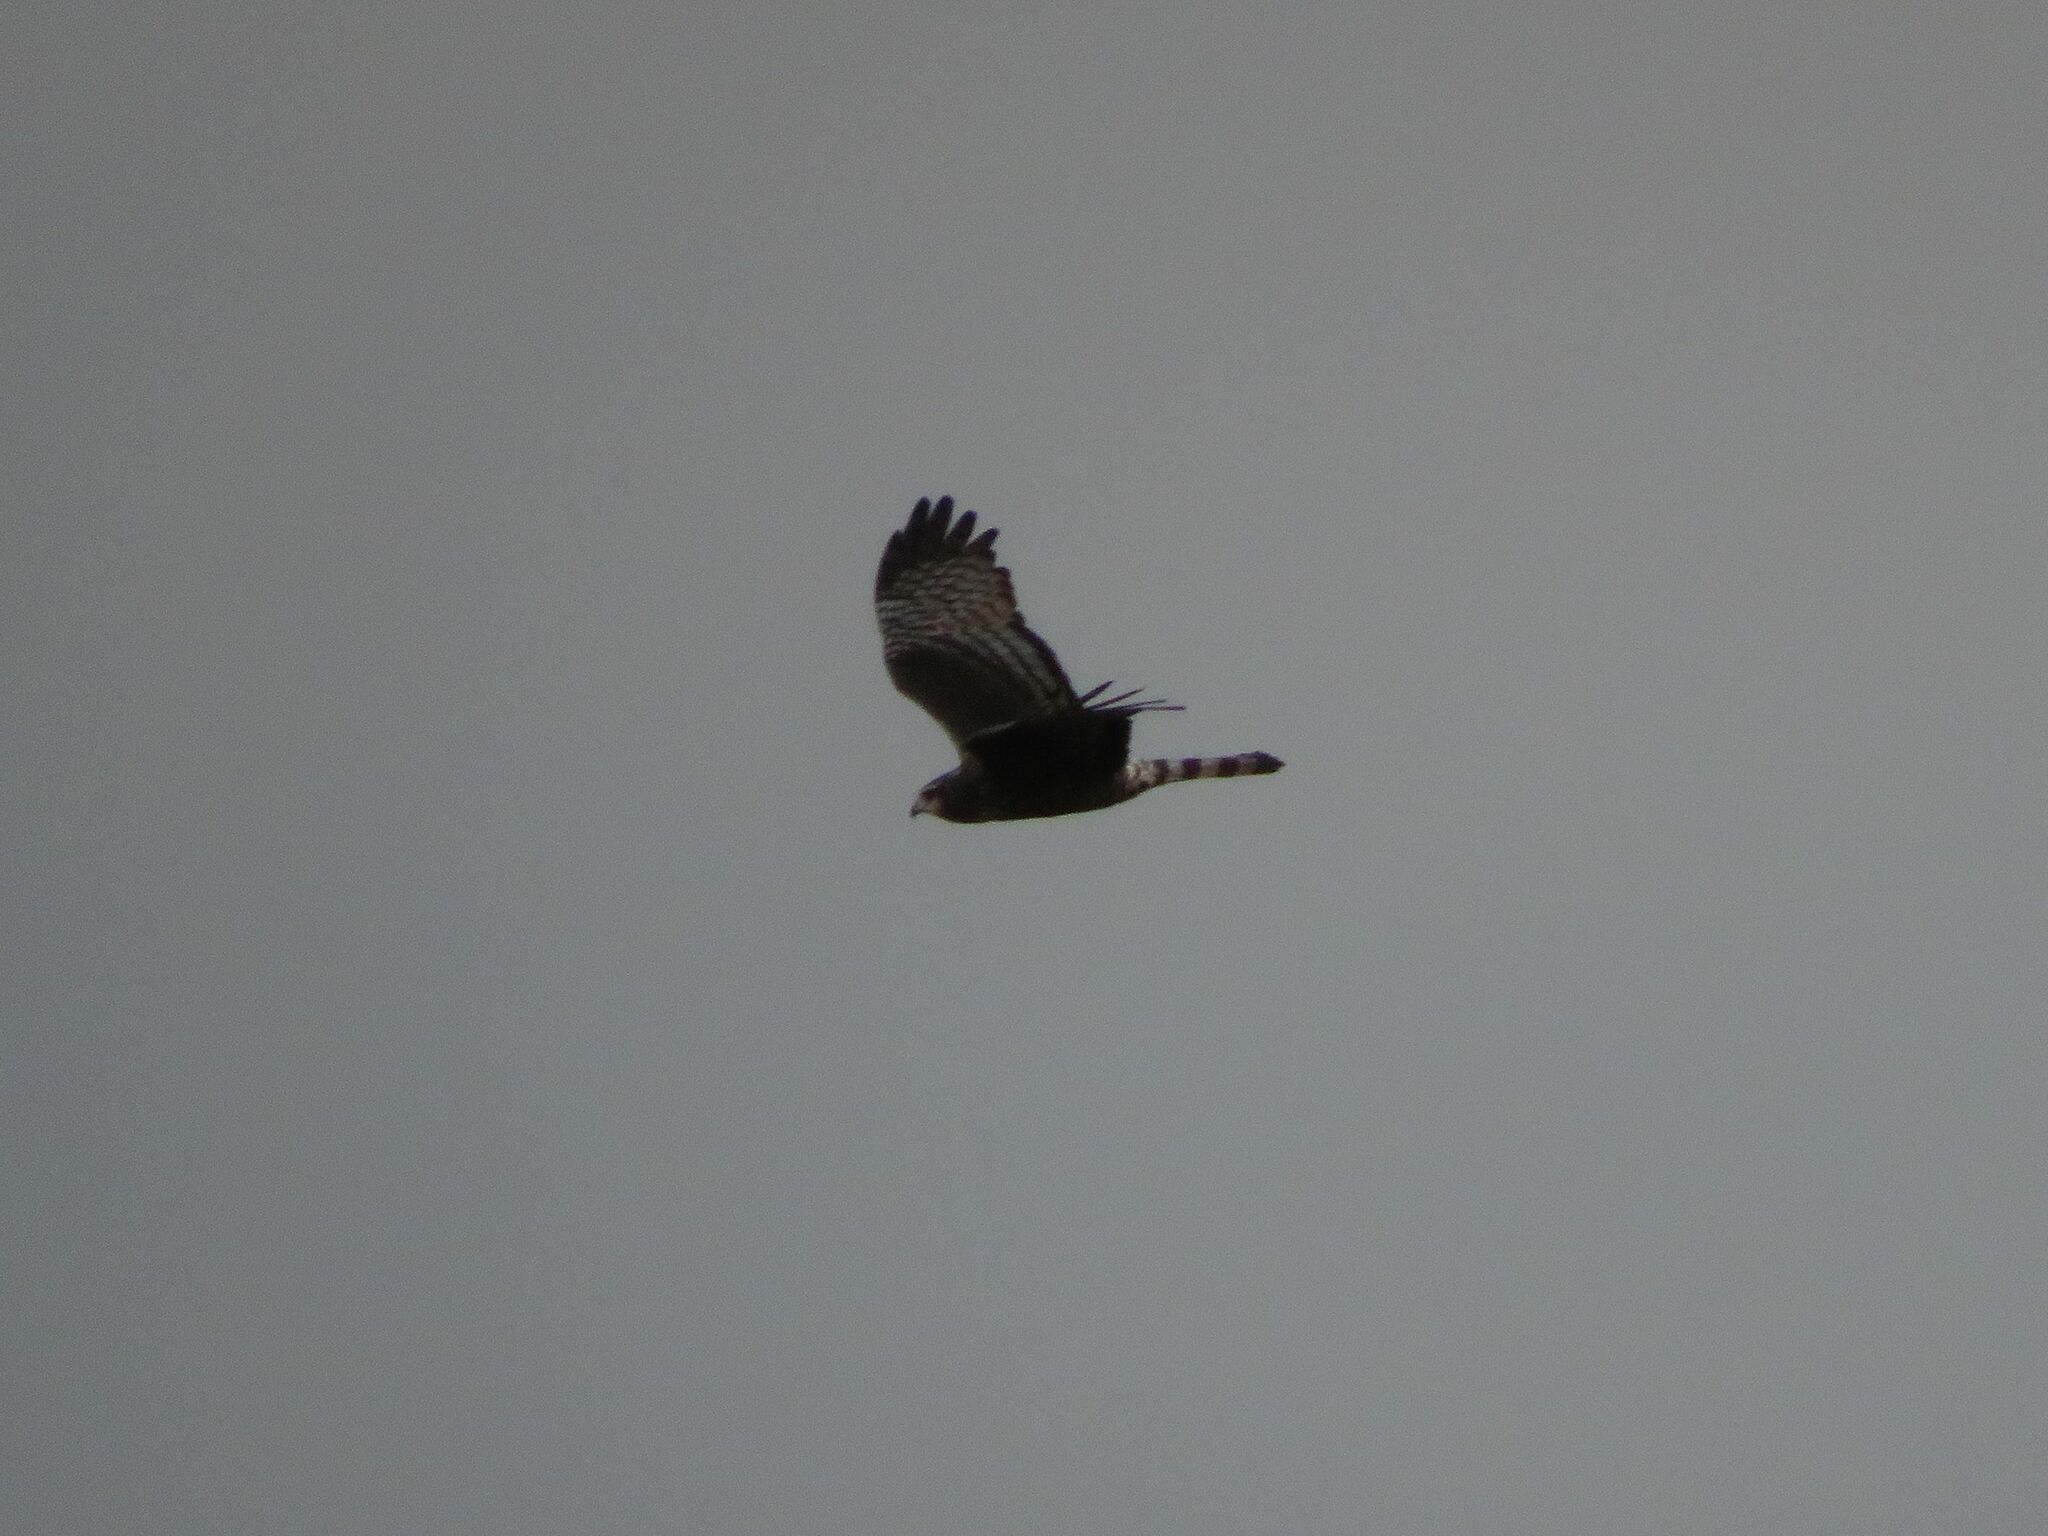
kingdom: Animalia
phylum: Chordata
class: Aves
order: Accipitriformes
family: Accipitridae
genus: Circus
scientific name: Circus buffoni
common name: Long-winged harrier
